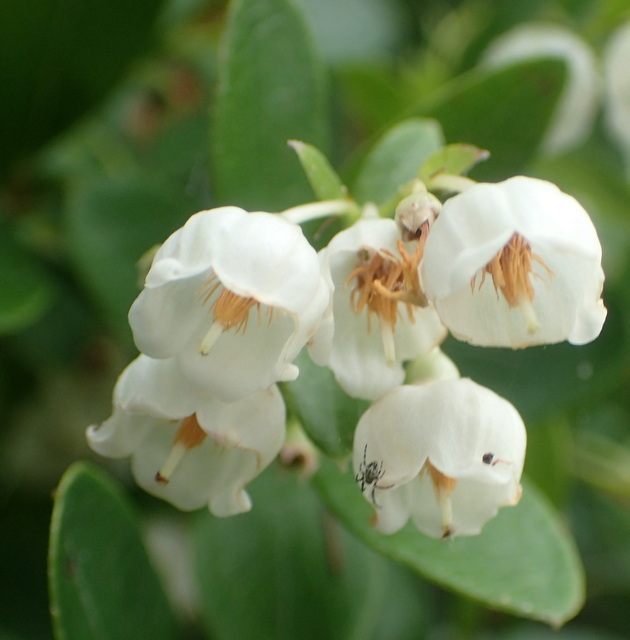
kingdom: Plantae
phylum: Tracheophyta
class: Magnoliopsida
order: Ericales
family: Ericaceae
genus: Vaccinium
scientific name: Vaccinium arboreum
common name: Farkleberry
